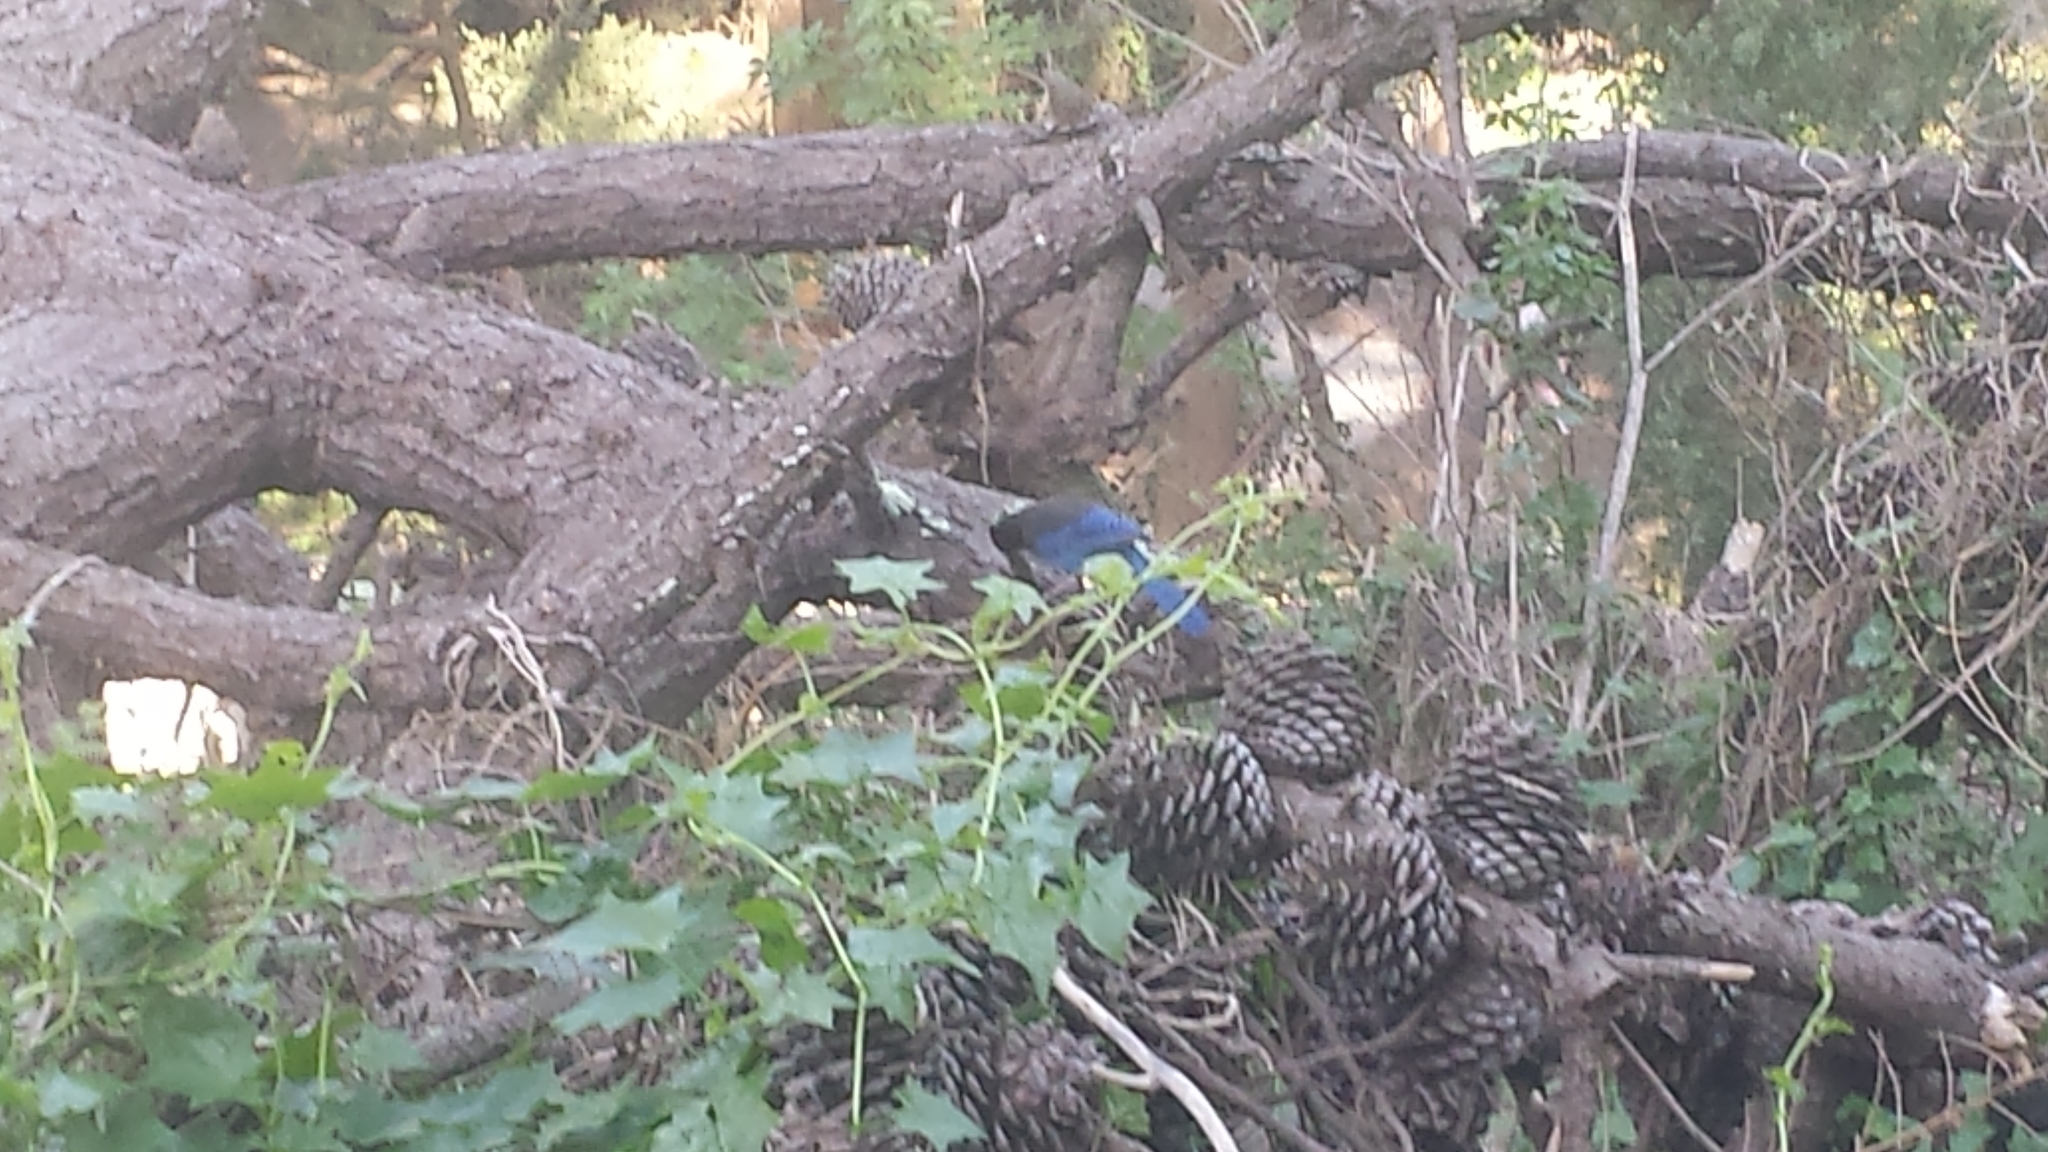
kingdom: Animalia
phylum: Chordata
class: Aves
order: Passeriformes
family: Corvidae
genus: Cyanocitta
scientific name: Cyanocitta stelleri
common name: Steller's jay
